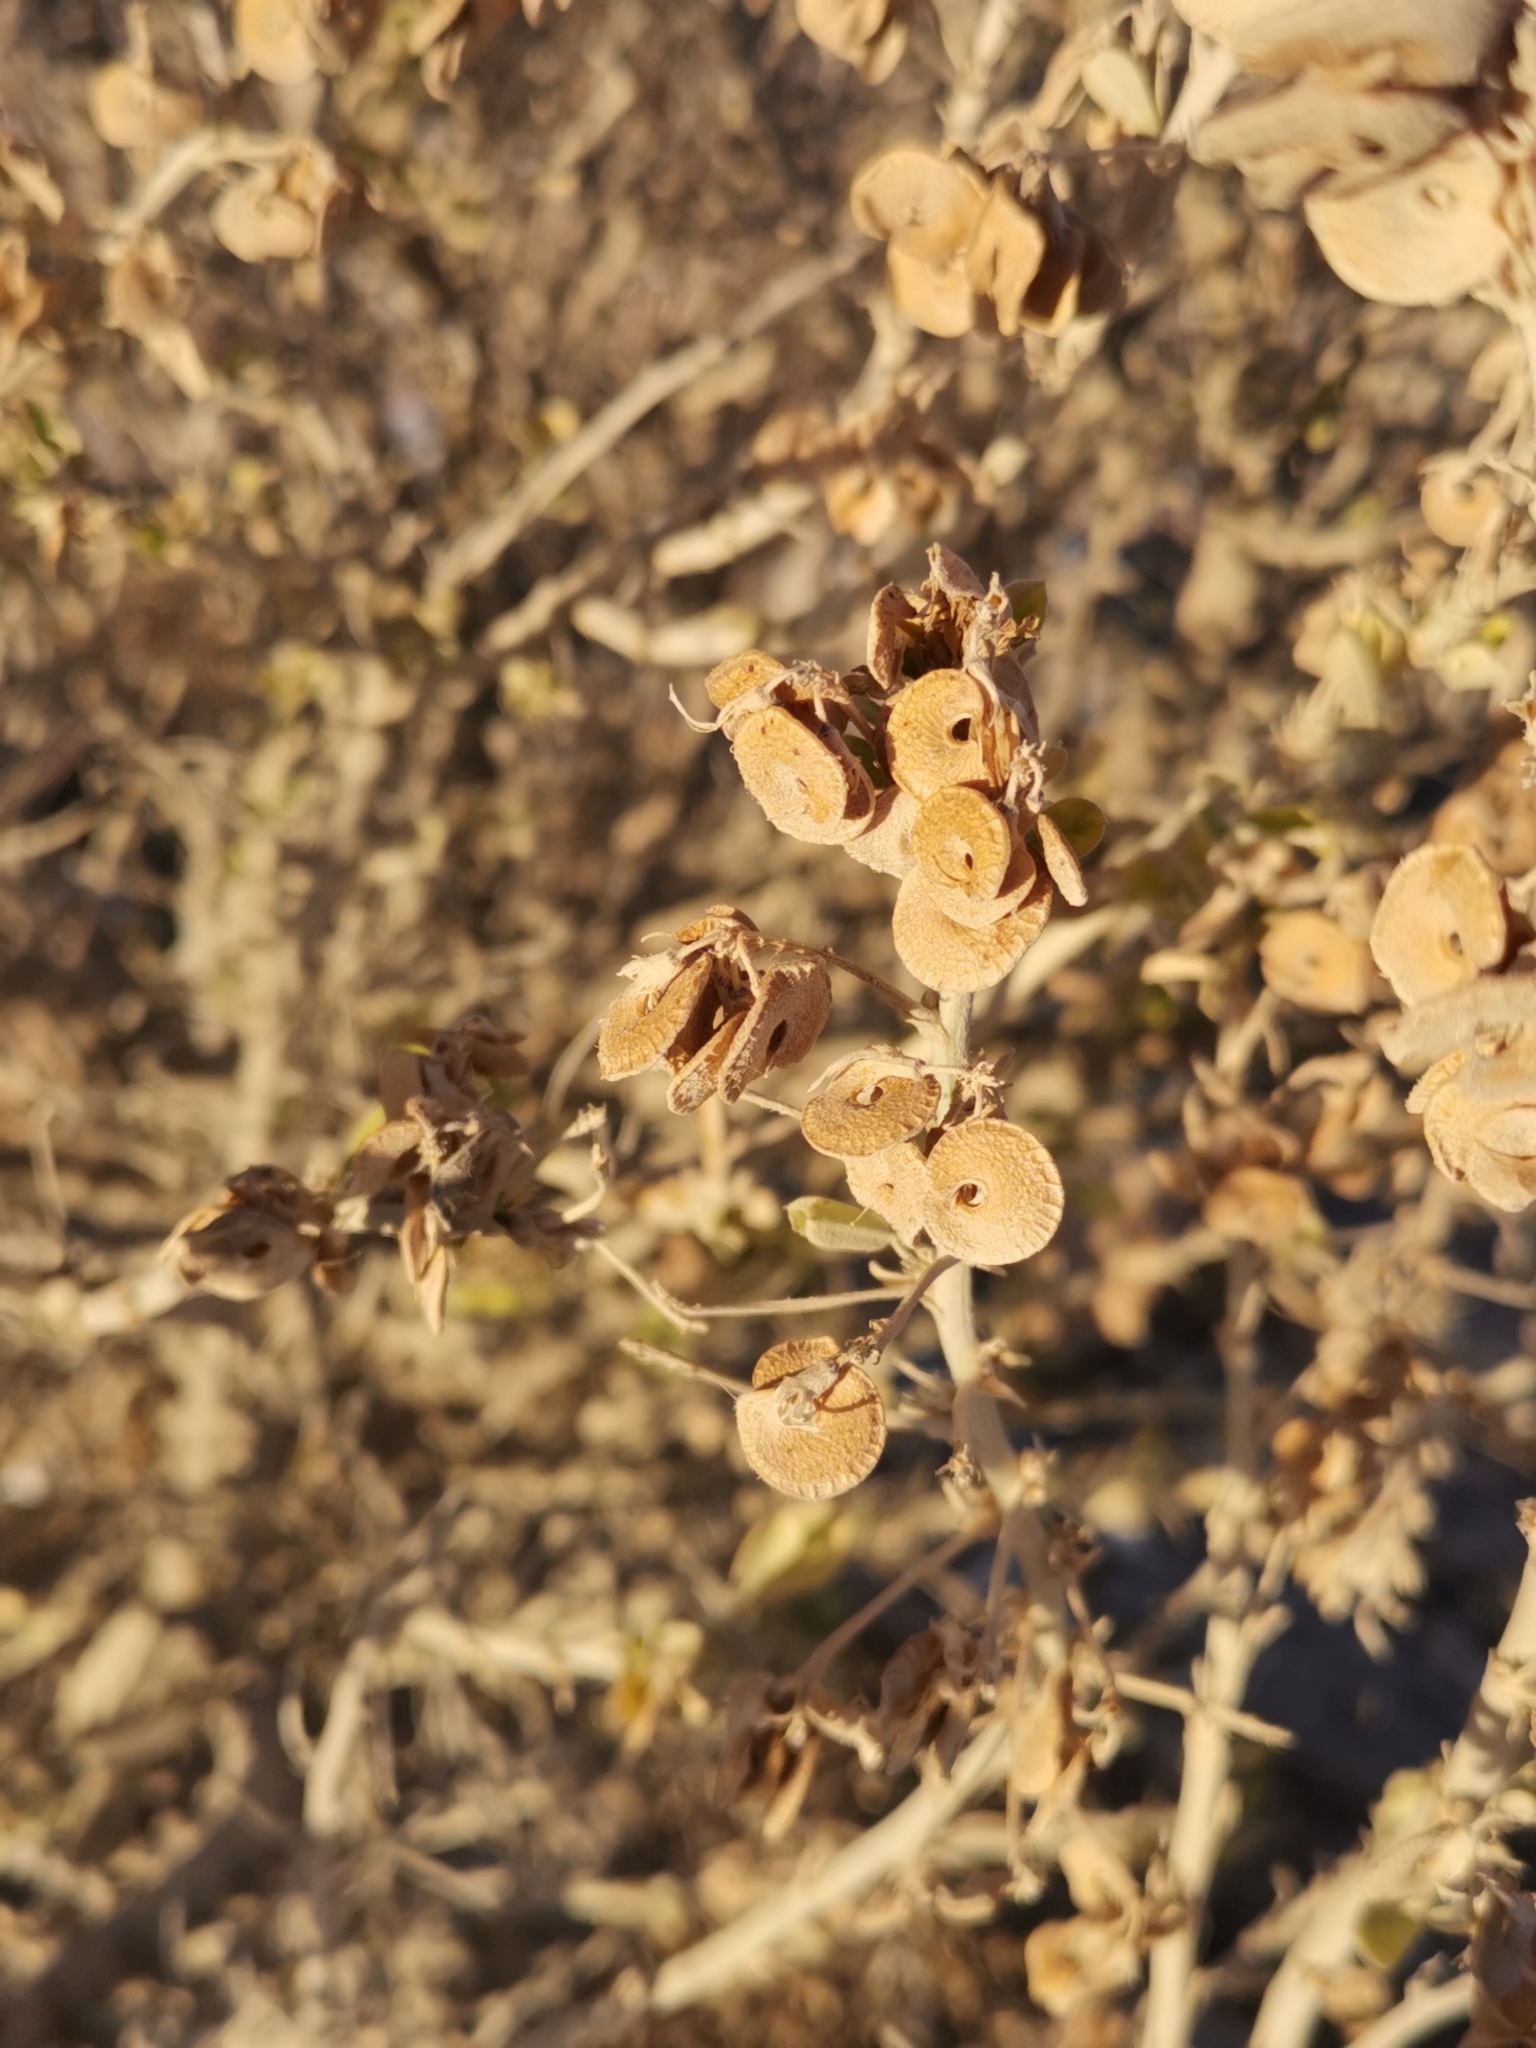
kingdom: Plantae
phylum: Tracheophyta
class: Magnoliopsida
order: Fabales
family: Fabaceae
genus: Medicago
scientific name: Medicago arborea
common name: Moon trefoil
